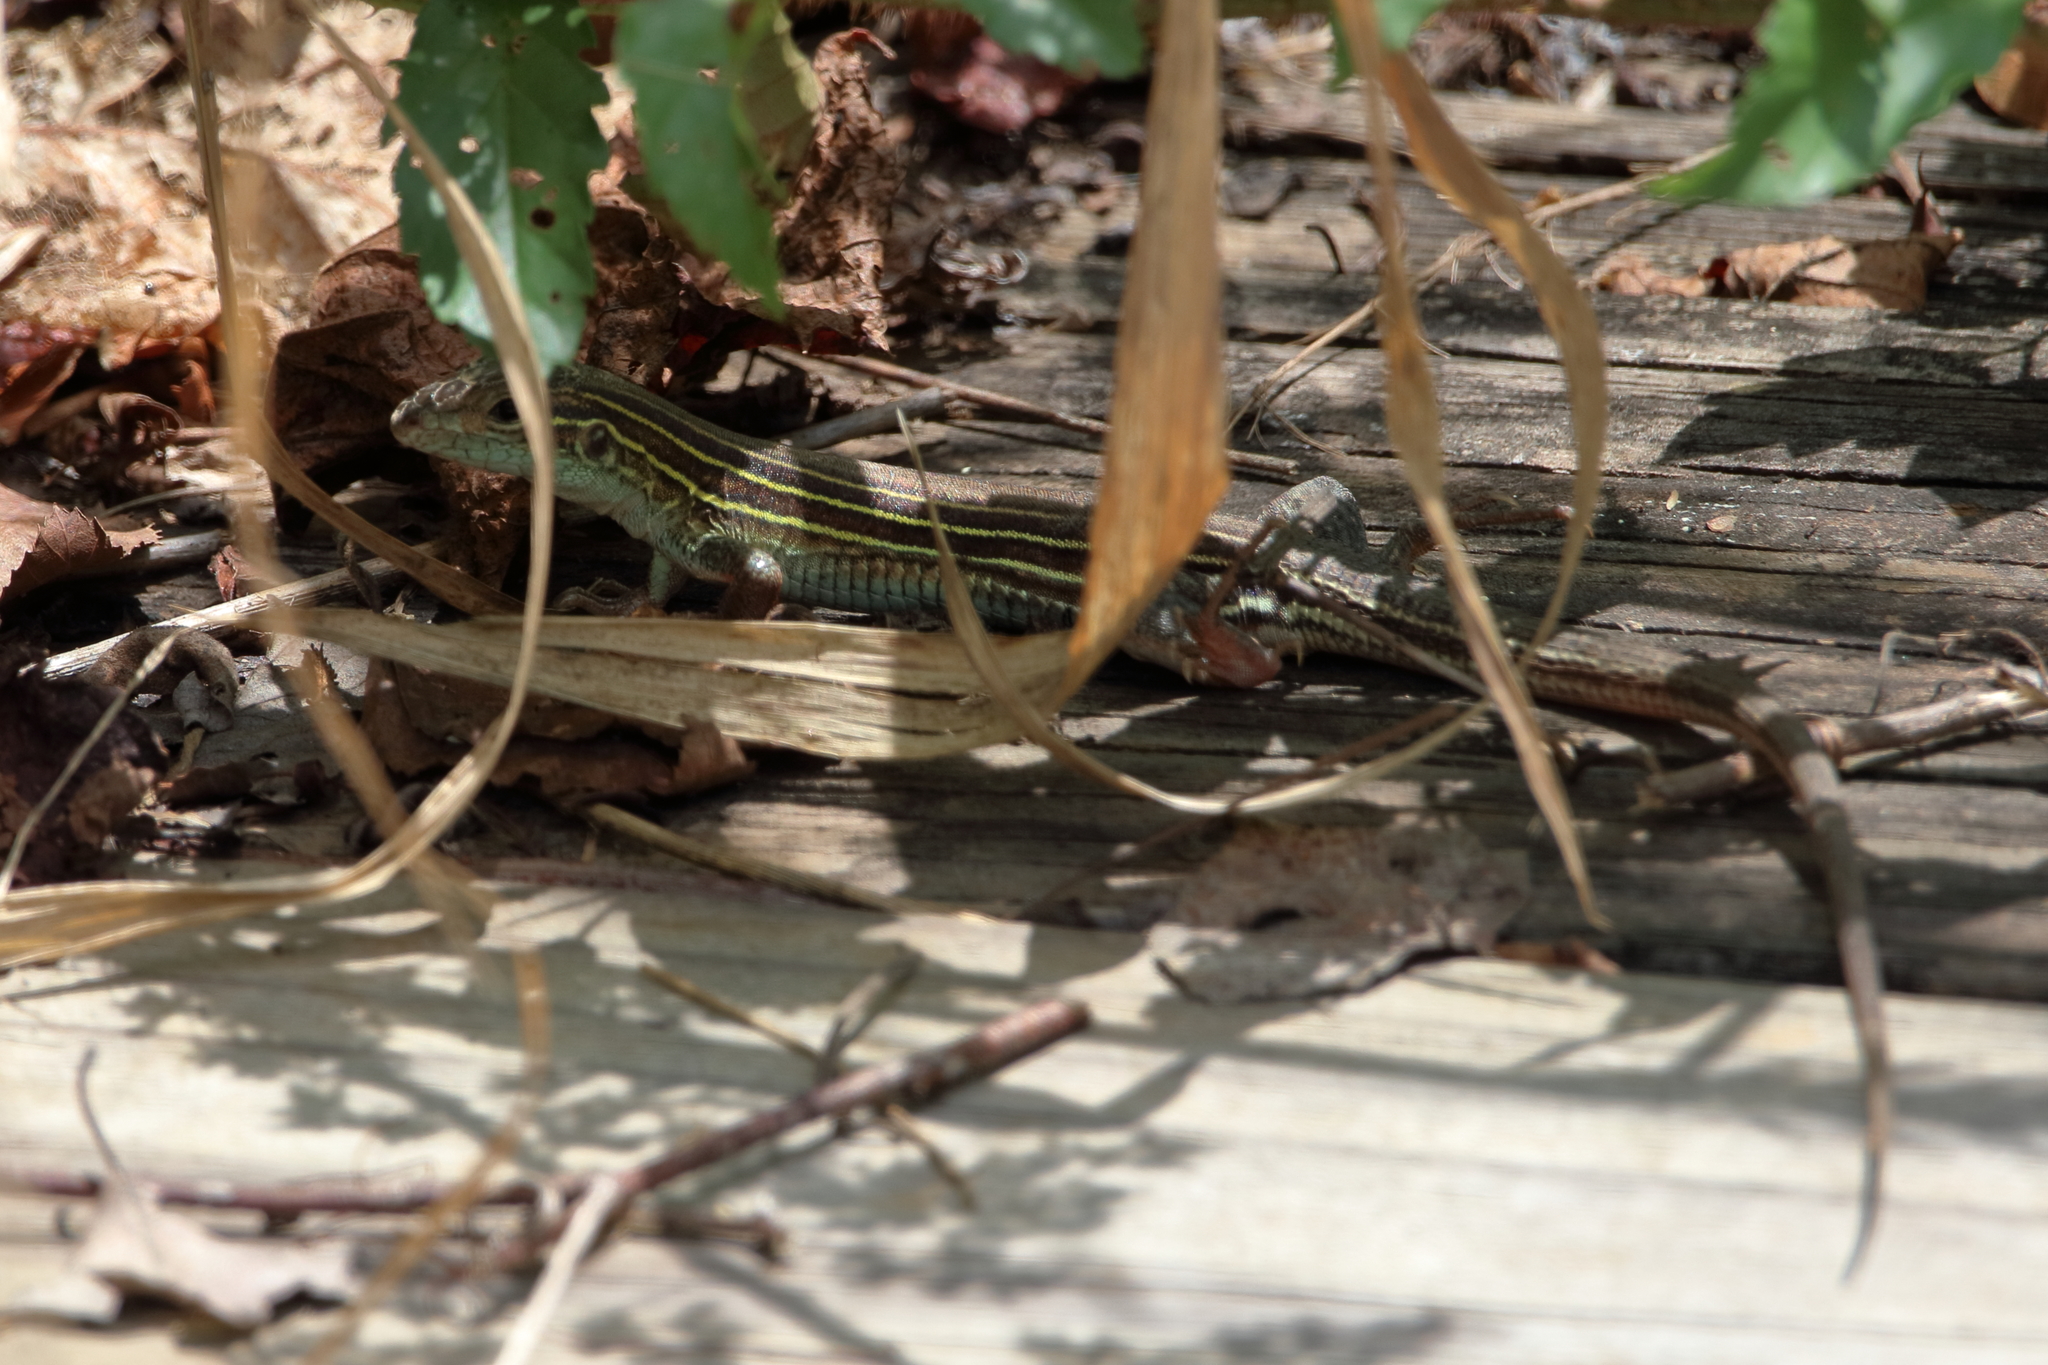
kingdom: Animalia
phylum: Chordata
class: Squamata
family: Teiidae
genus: Aspidoscelis
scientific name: Aspidoscelis sexlineatus
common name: Six-lined racerunner
